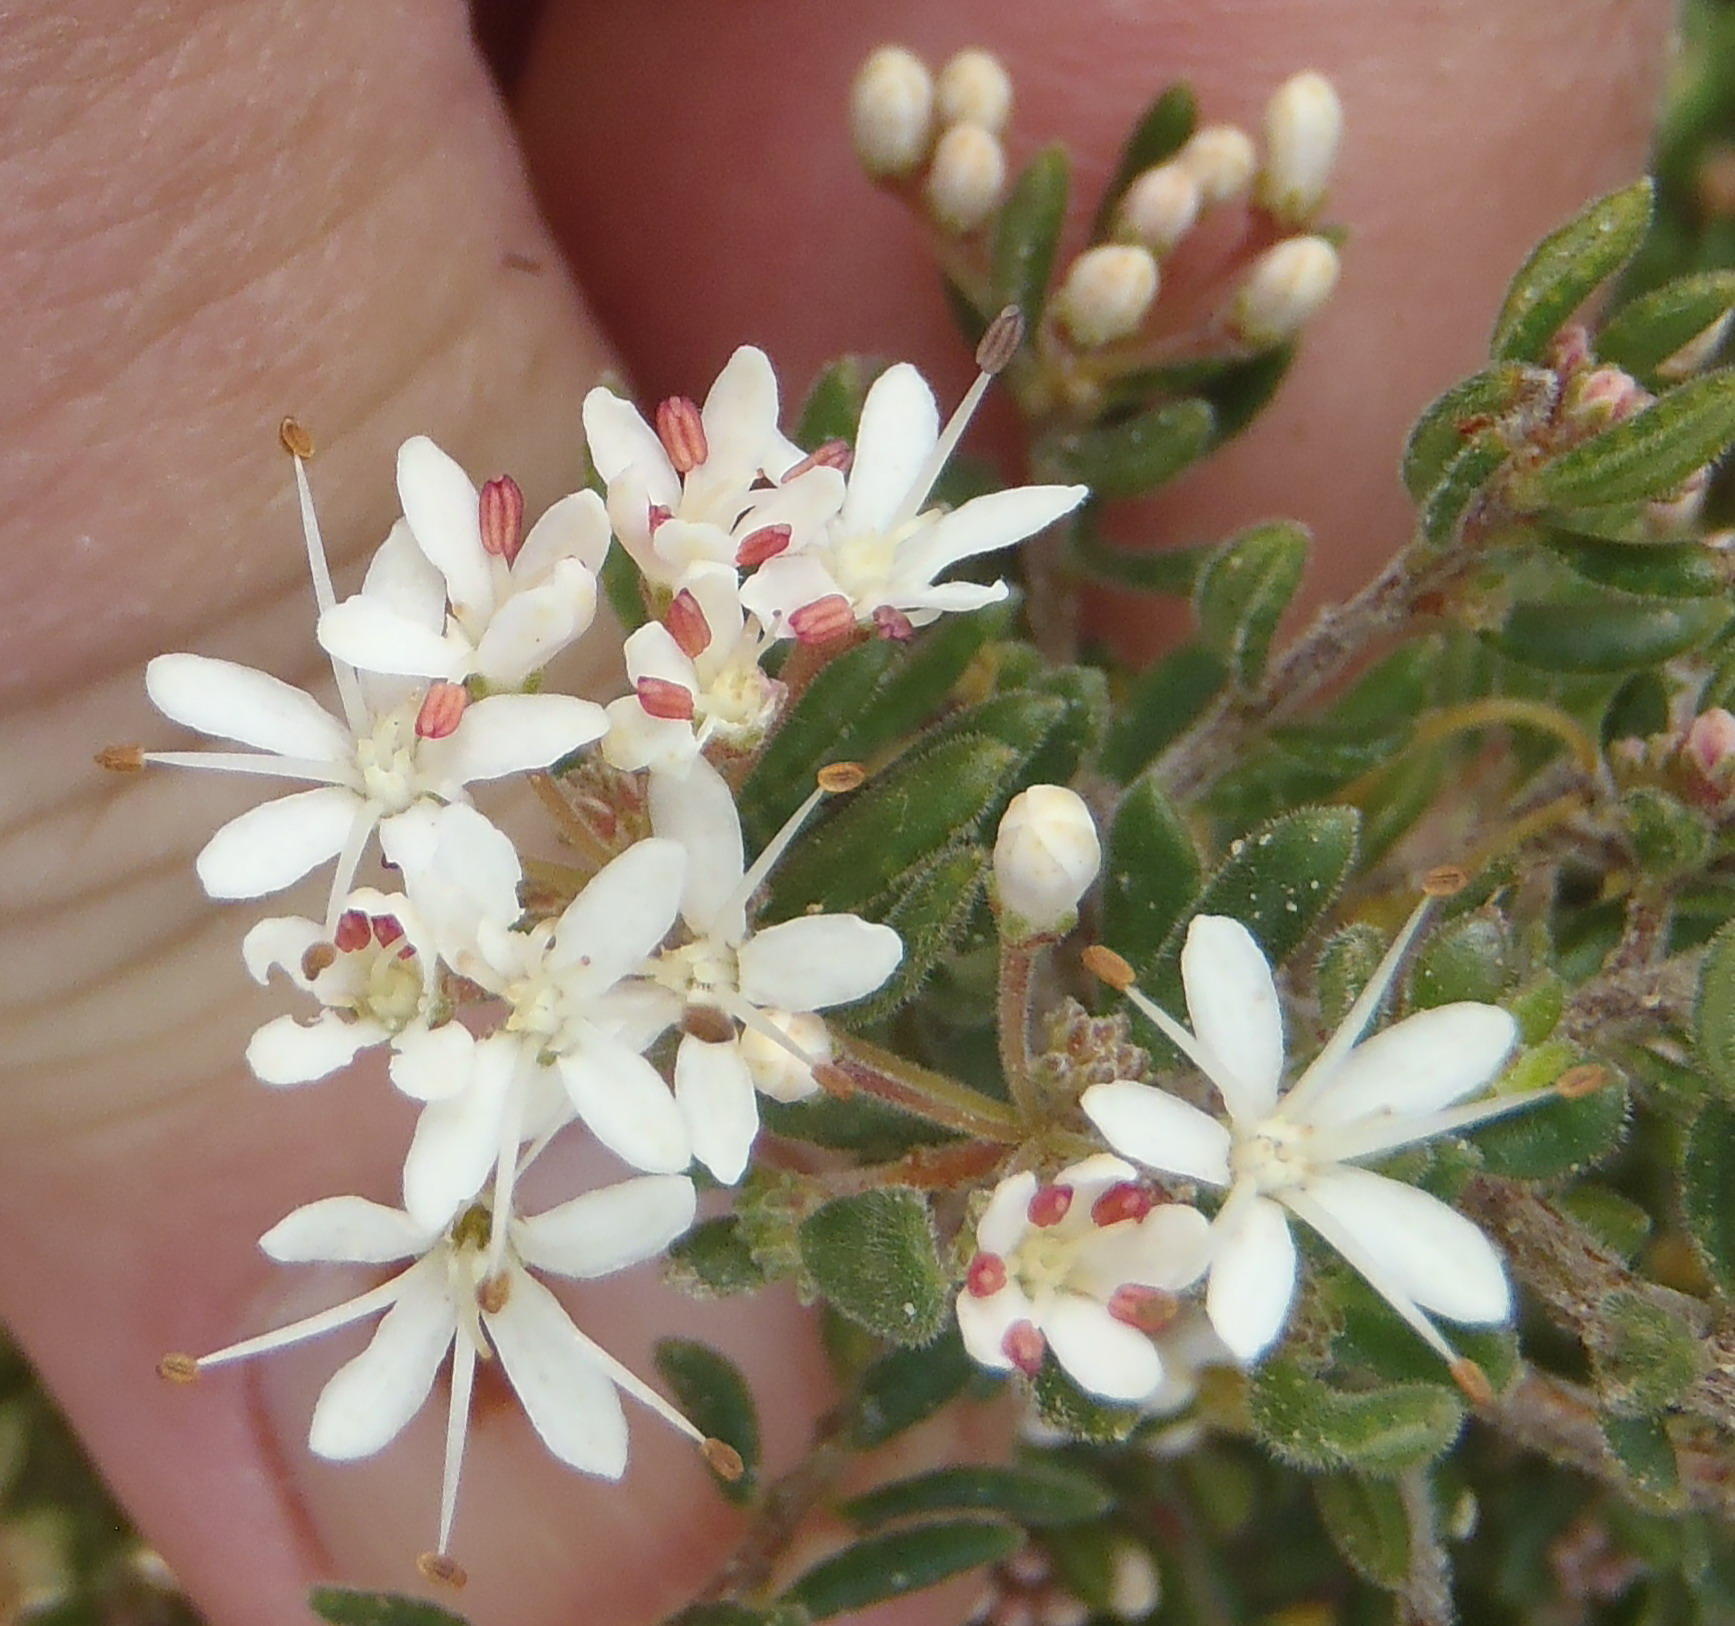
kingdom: Plantae
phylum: Tracheophyta
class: Magnoliopsida
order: Sapindales
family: Rutaceae
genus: Agathosma
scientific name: Agathosma mundtii
